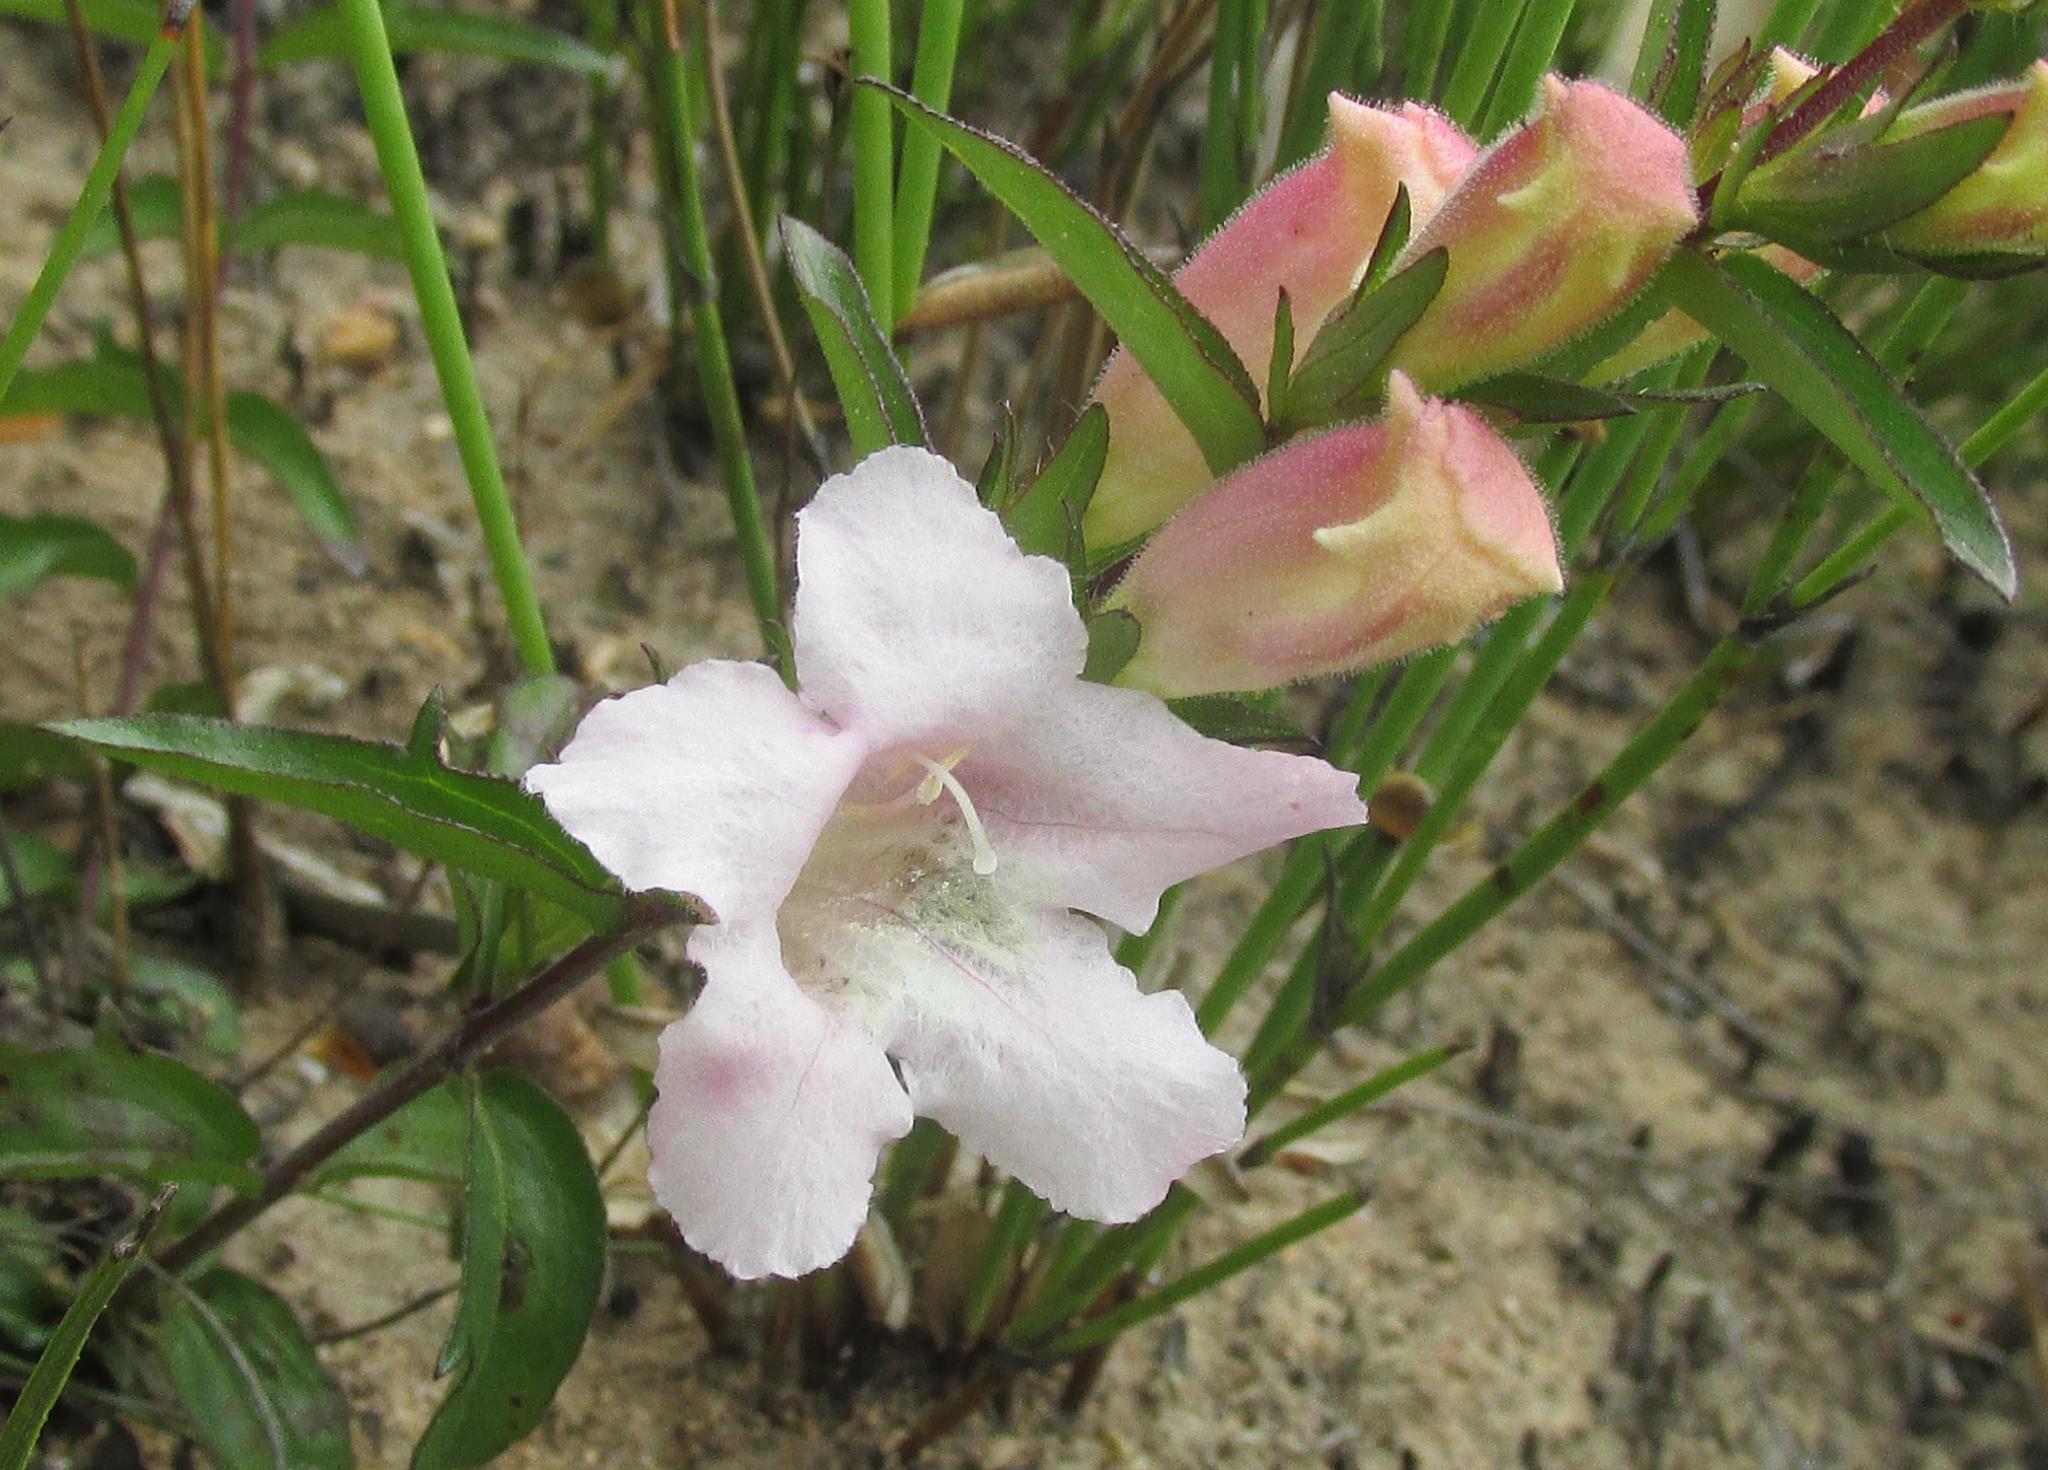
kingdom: Plantae
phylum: Tracheophyta
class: Magnoliopsida
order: Lamiales
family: Orobanchaceae
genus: Graderia
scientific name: Graderia scabra
